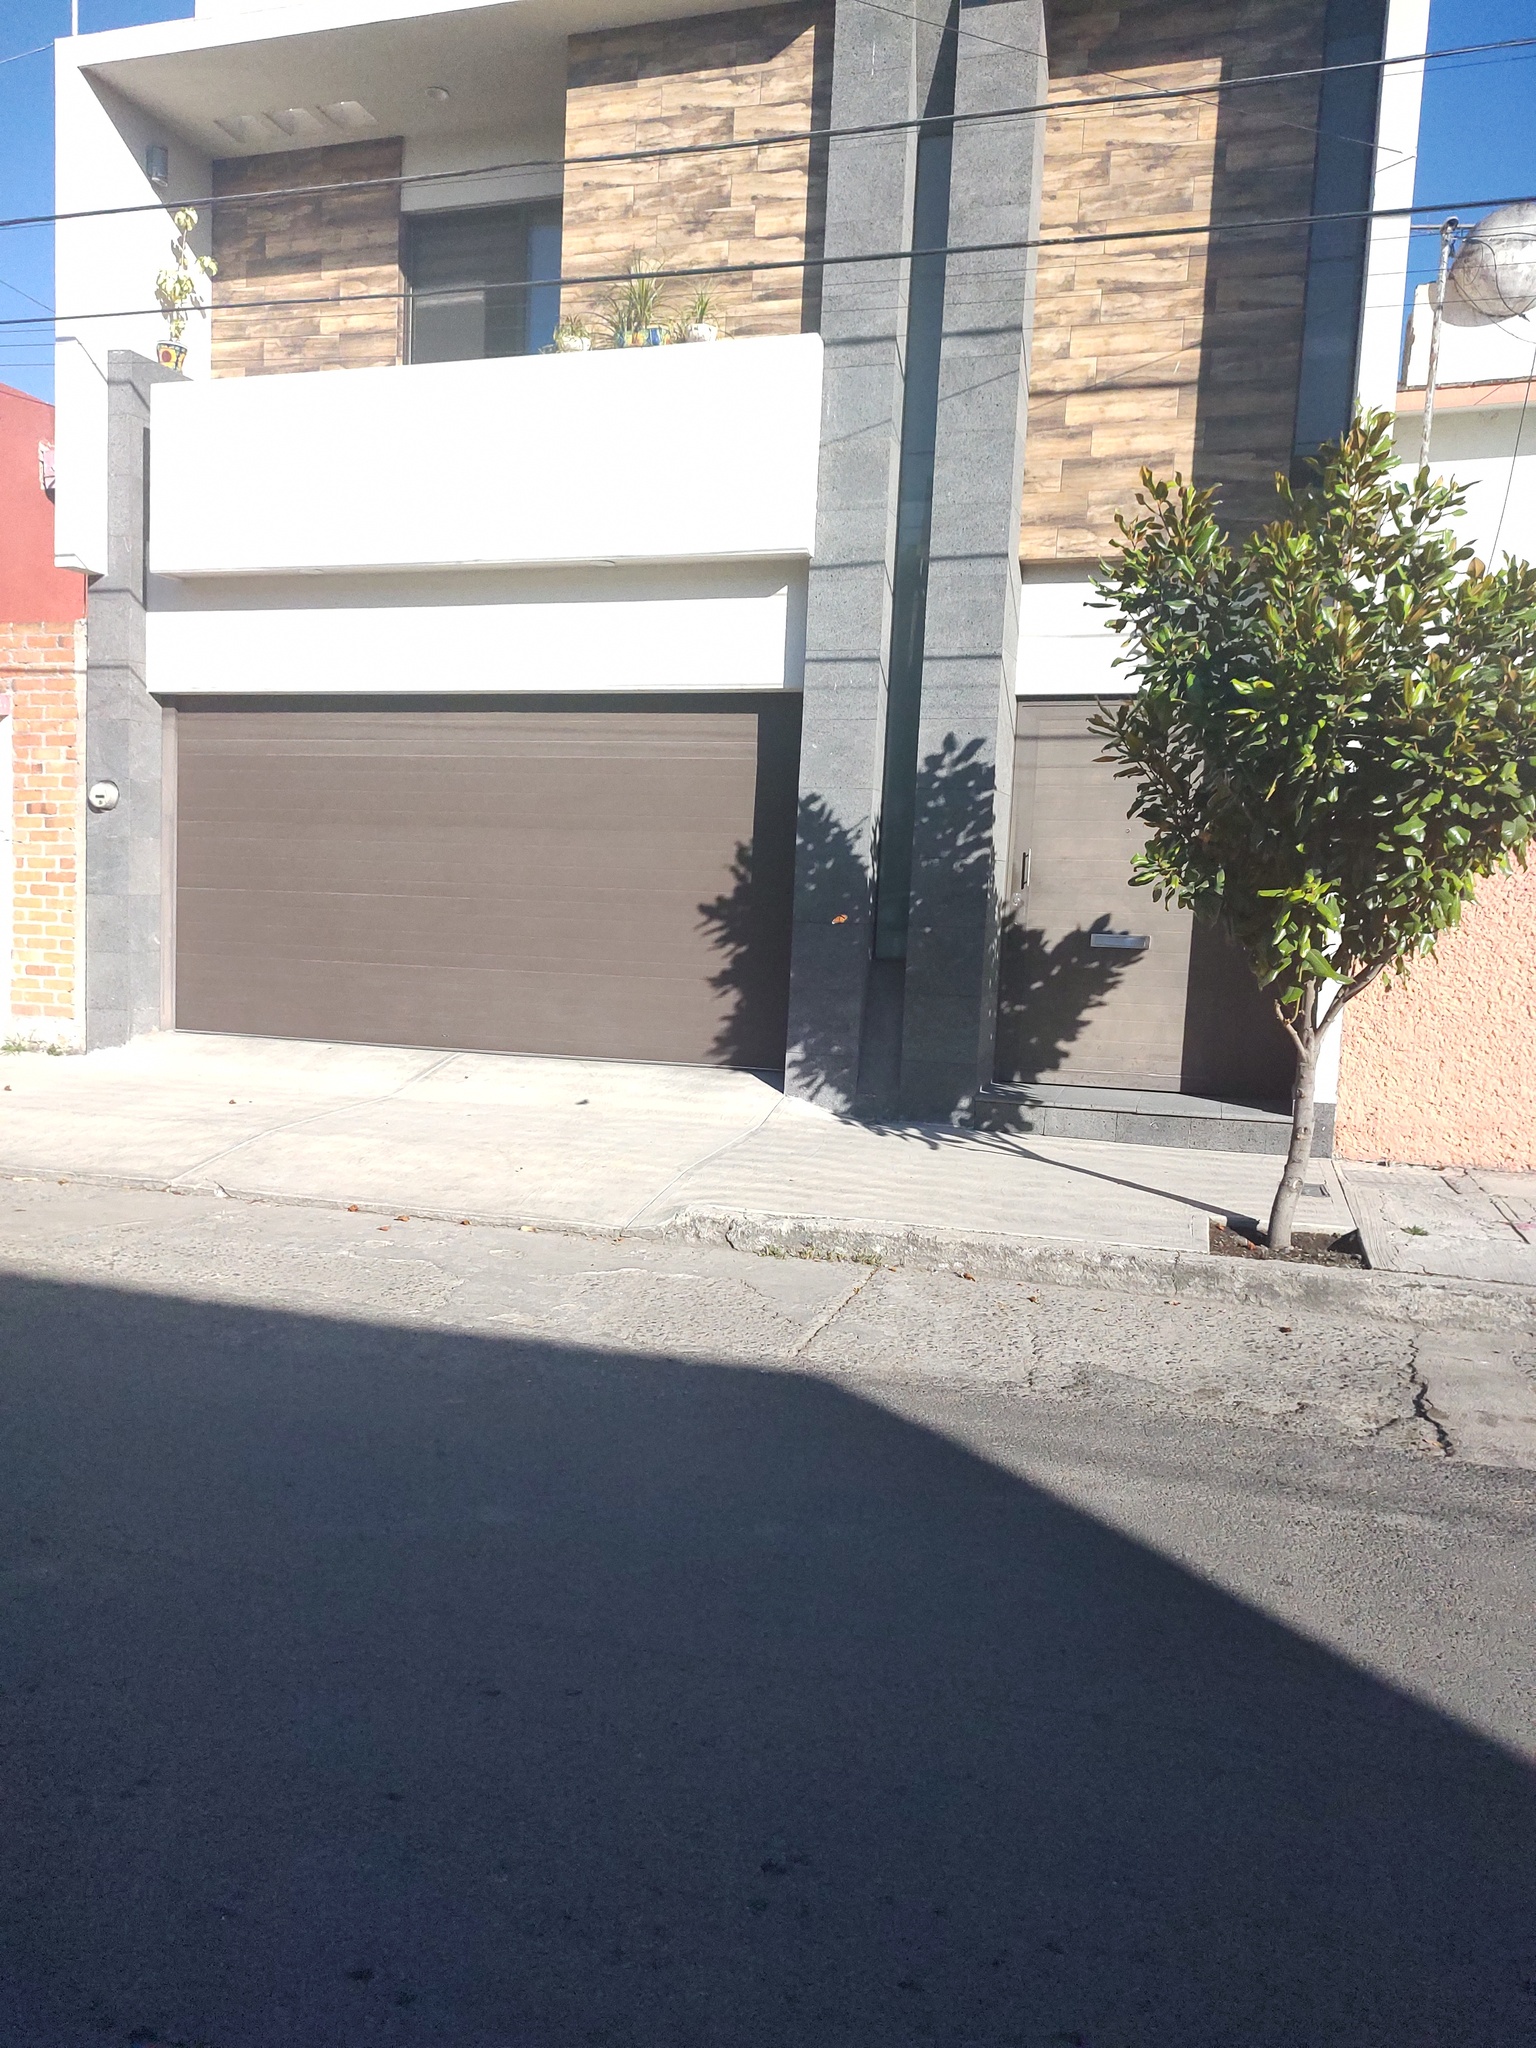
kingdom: Animalia
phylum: Arthropoda
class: Insecta
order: Lepidoptera
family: Nymphalidae
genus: Danaus
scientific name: Danaus plexippus
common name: Monarch
